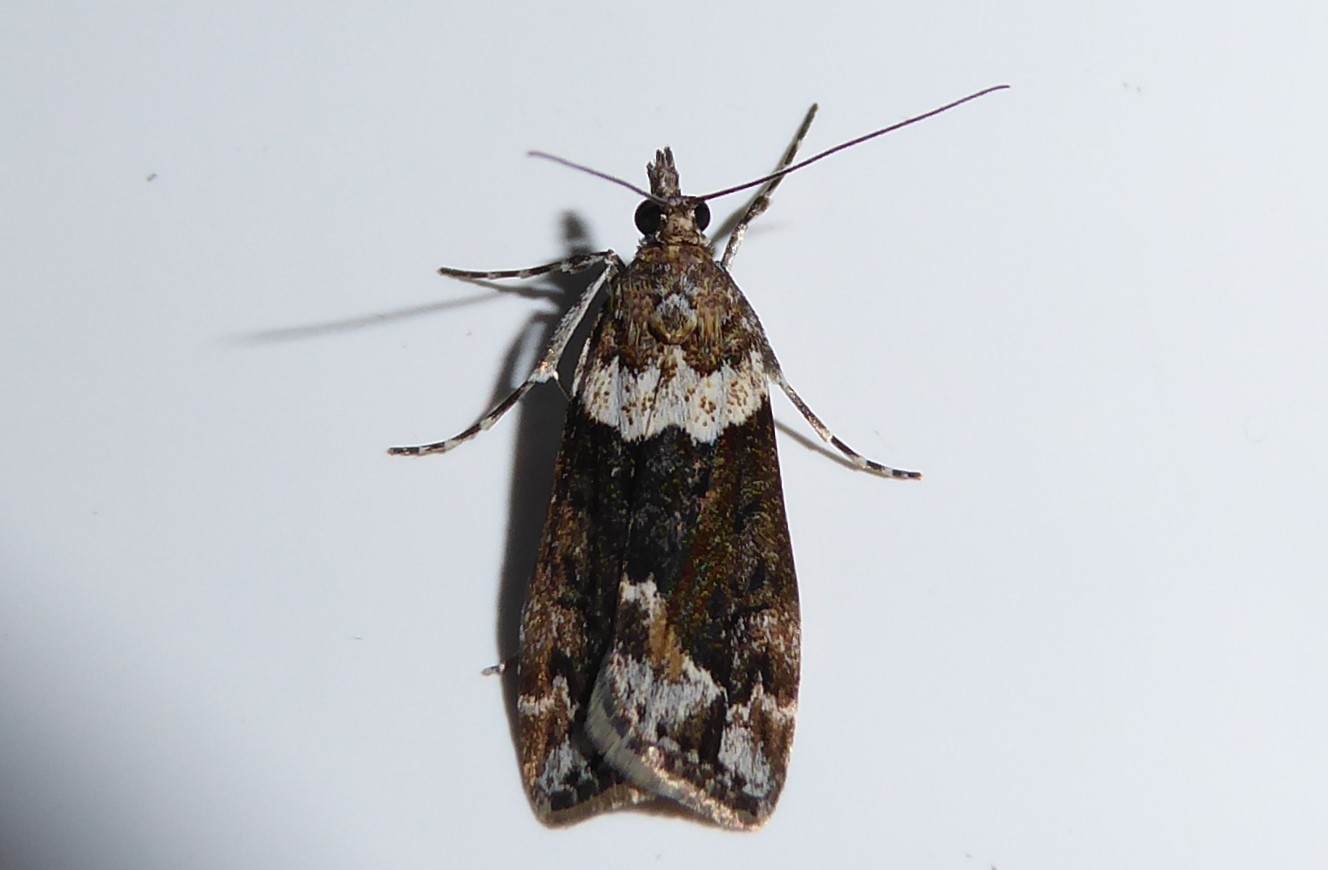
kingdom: Animalia
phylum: Arthropoda
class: Insecta
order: Lepidoptera
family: Crambidae
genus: Eudonia
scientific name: Eudonia submarginalis
